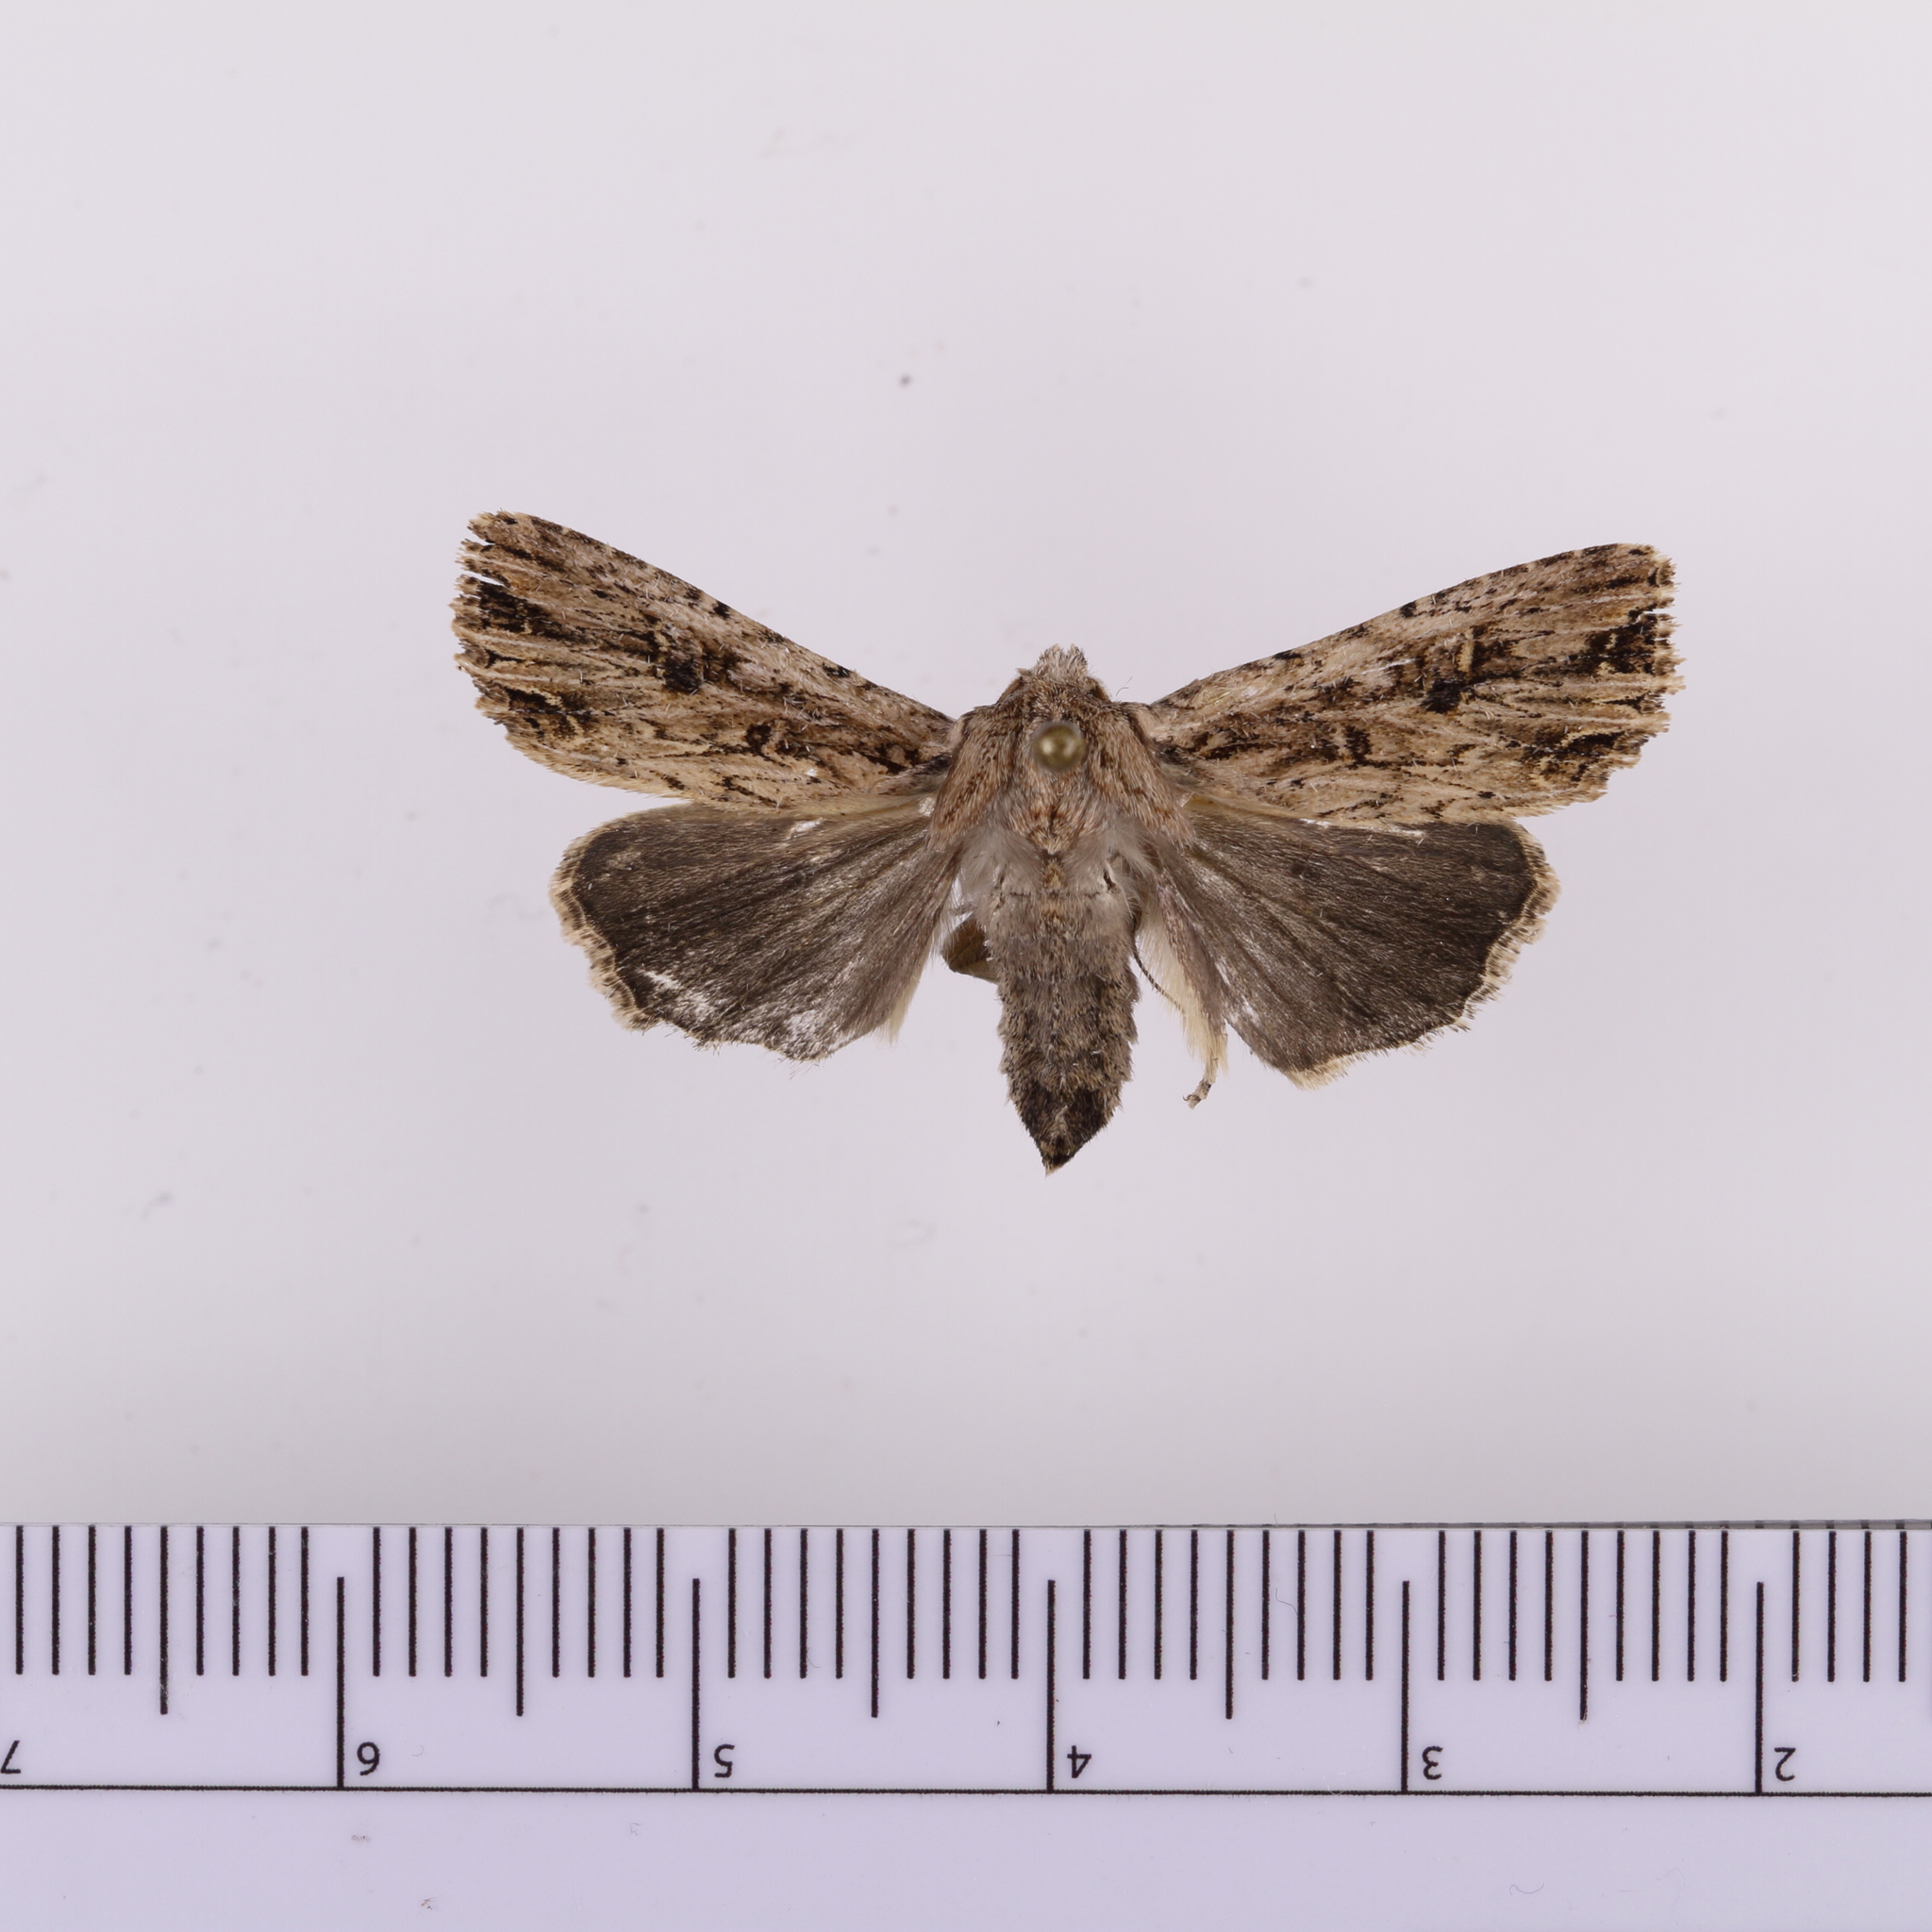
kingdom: Animalia
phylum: Arthropoda
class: Insecta
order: Lepidoptera
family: Noctuidae
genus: Ichneutica
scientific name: Ichneutica lignana
